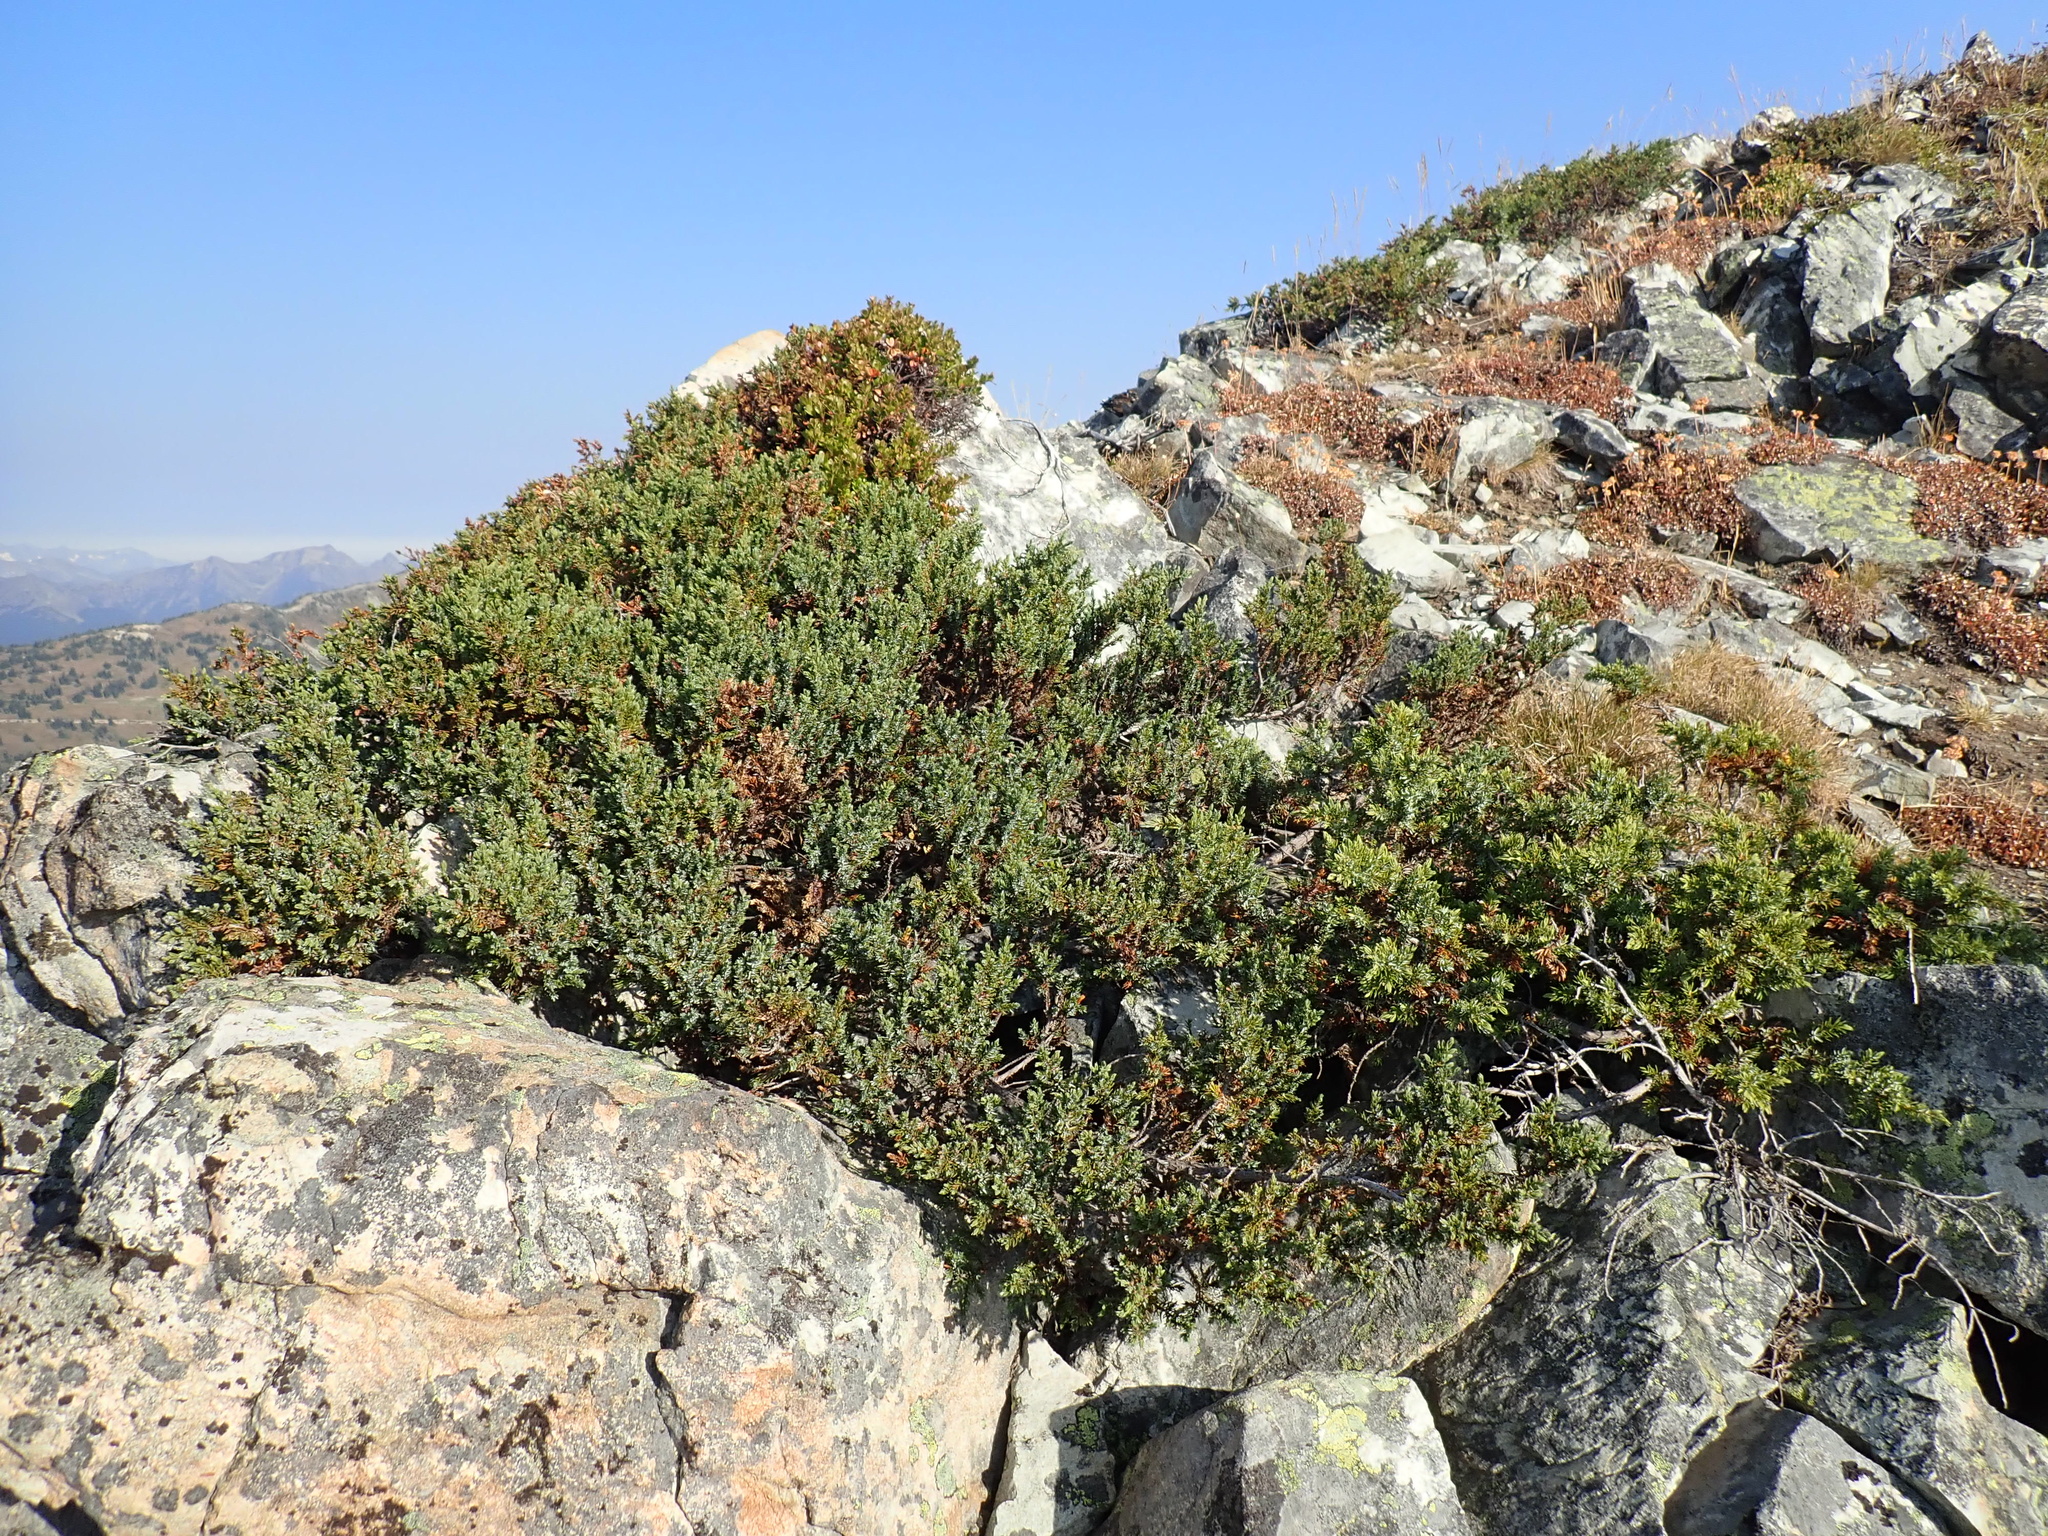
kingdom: Plantae
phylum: Tracheophyta
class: Pinopsida
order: Pinales
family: Cupressaceae
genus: Juniperus
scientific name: Juniperus communis
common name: Common juniper
